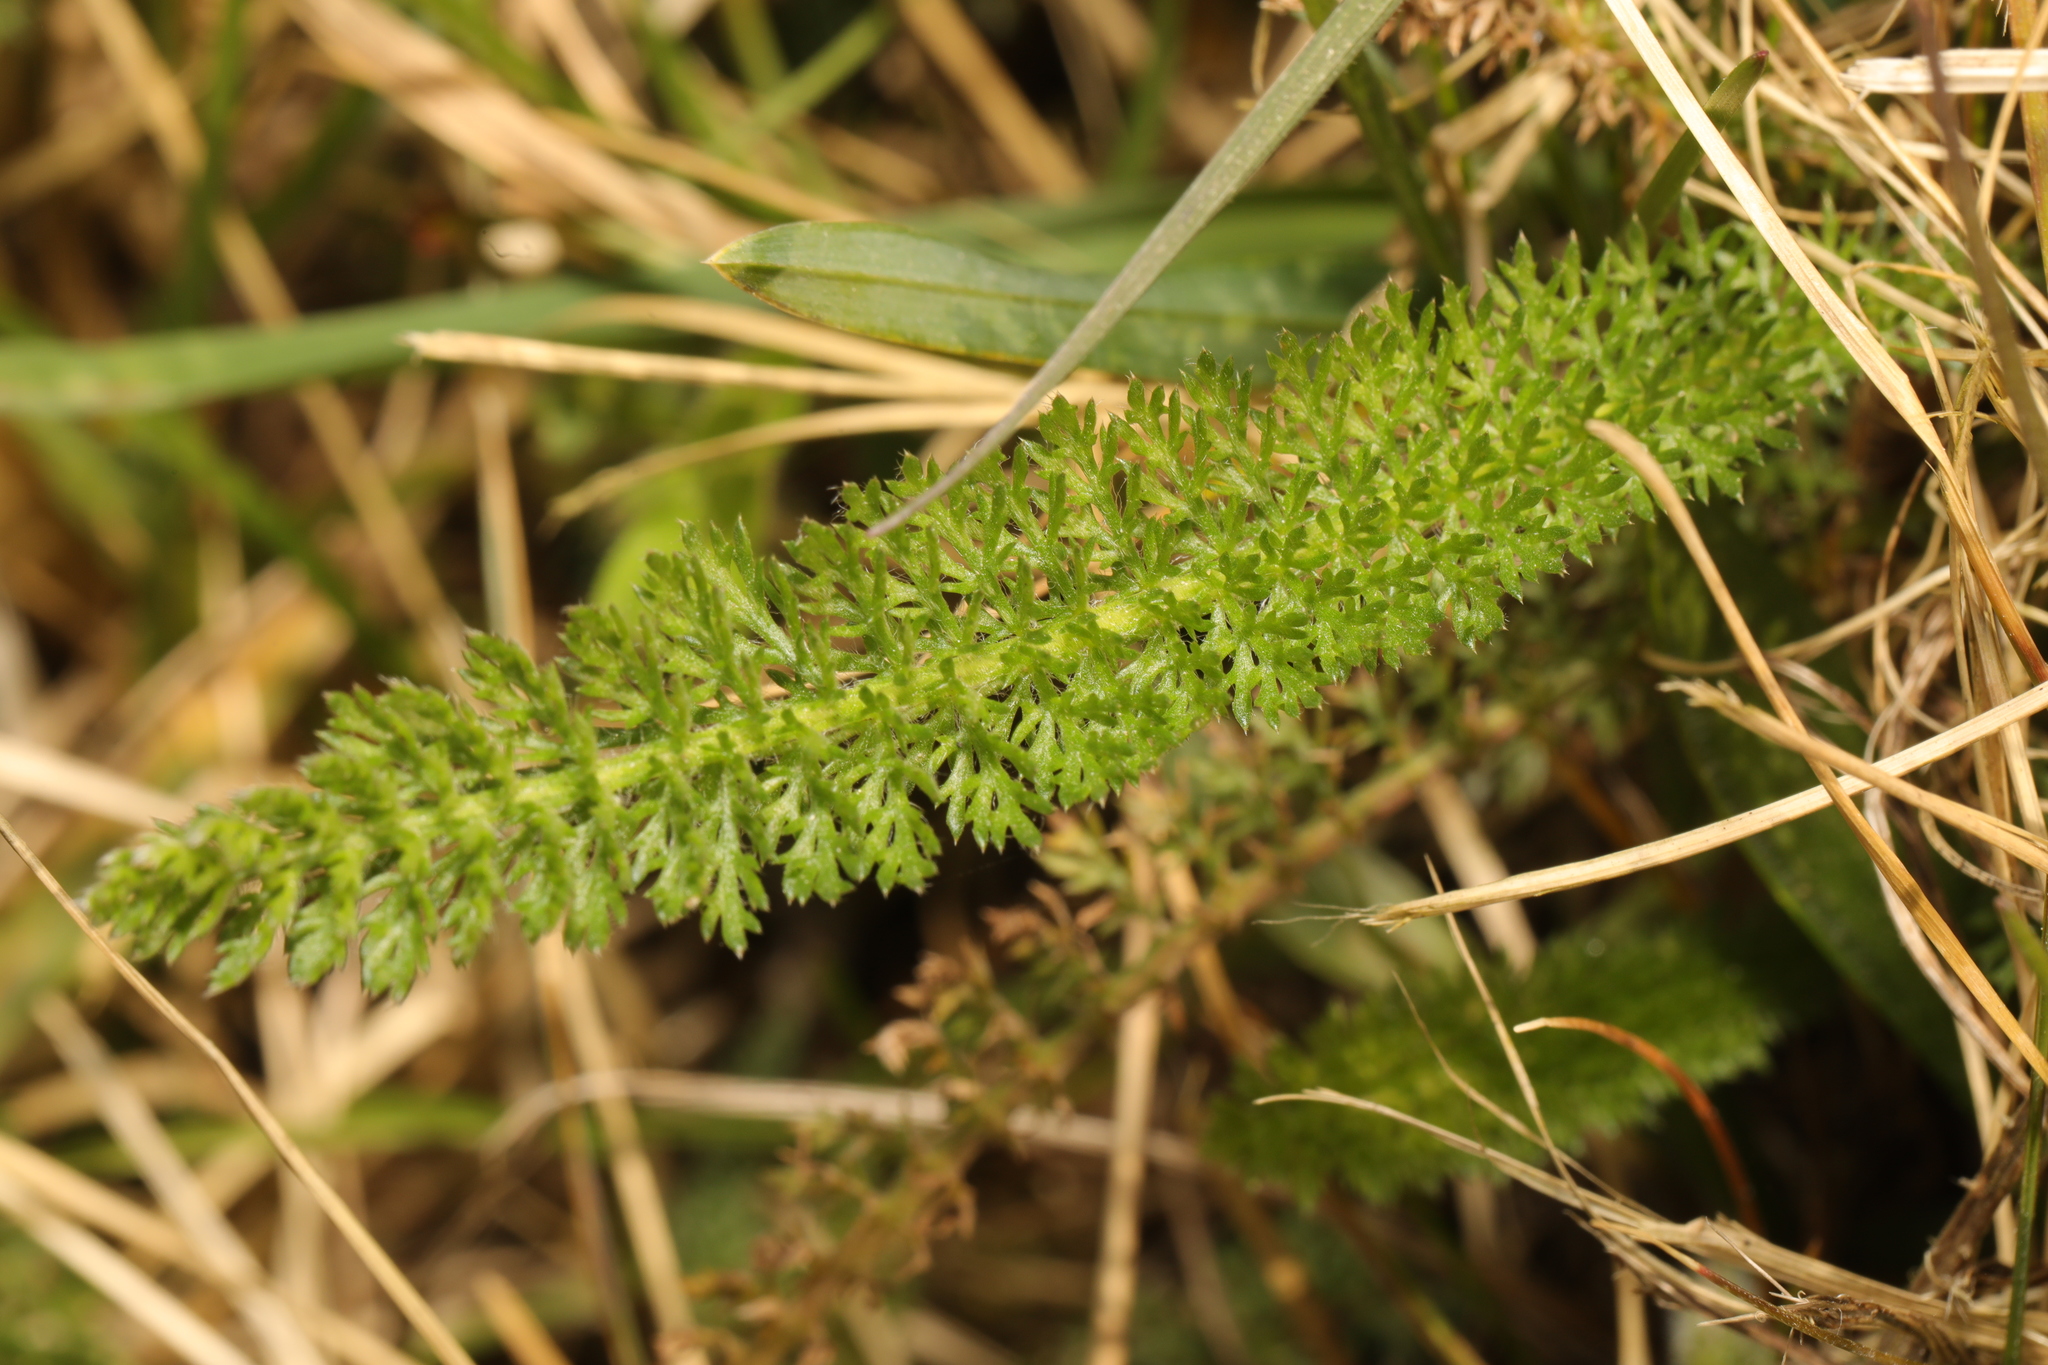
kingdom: Plantae
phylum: Tracheophyta
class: Magnoliopsida
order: Asterales
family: Asteraceae
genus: Achillea
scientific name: Achillea millefolium
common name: Yarrow
